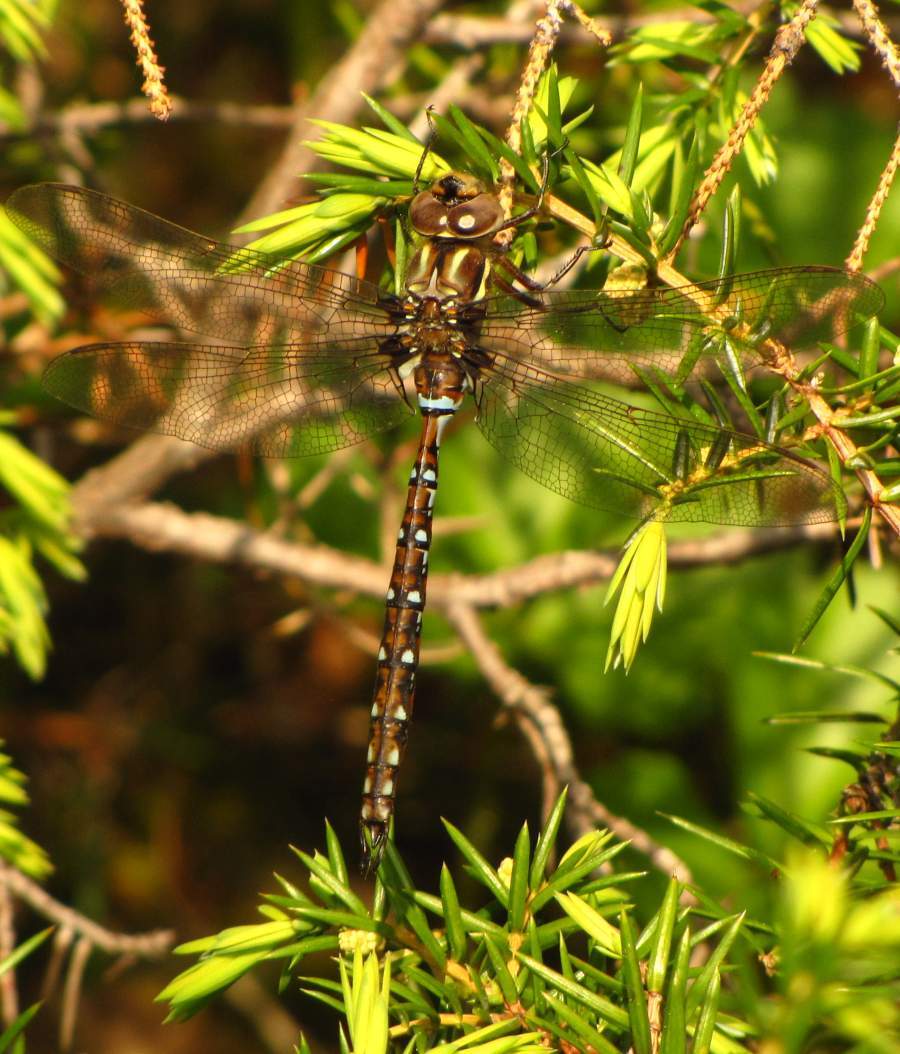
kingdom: Animalia
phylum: Arthropoda
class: Insecta
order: Odonata
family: Aeshnidae
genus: Basiaeschna
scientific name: Basiaeschna janata
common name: Springtime darner
